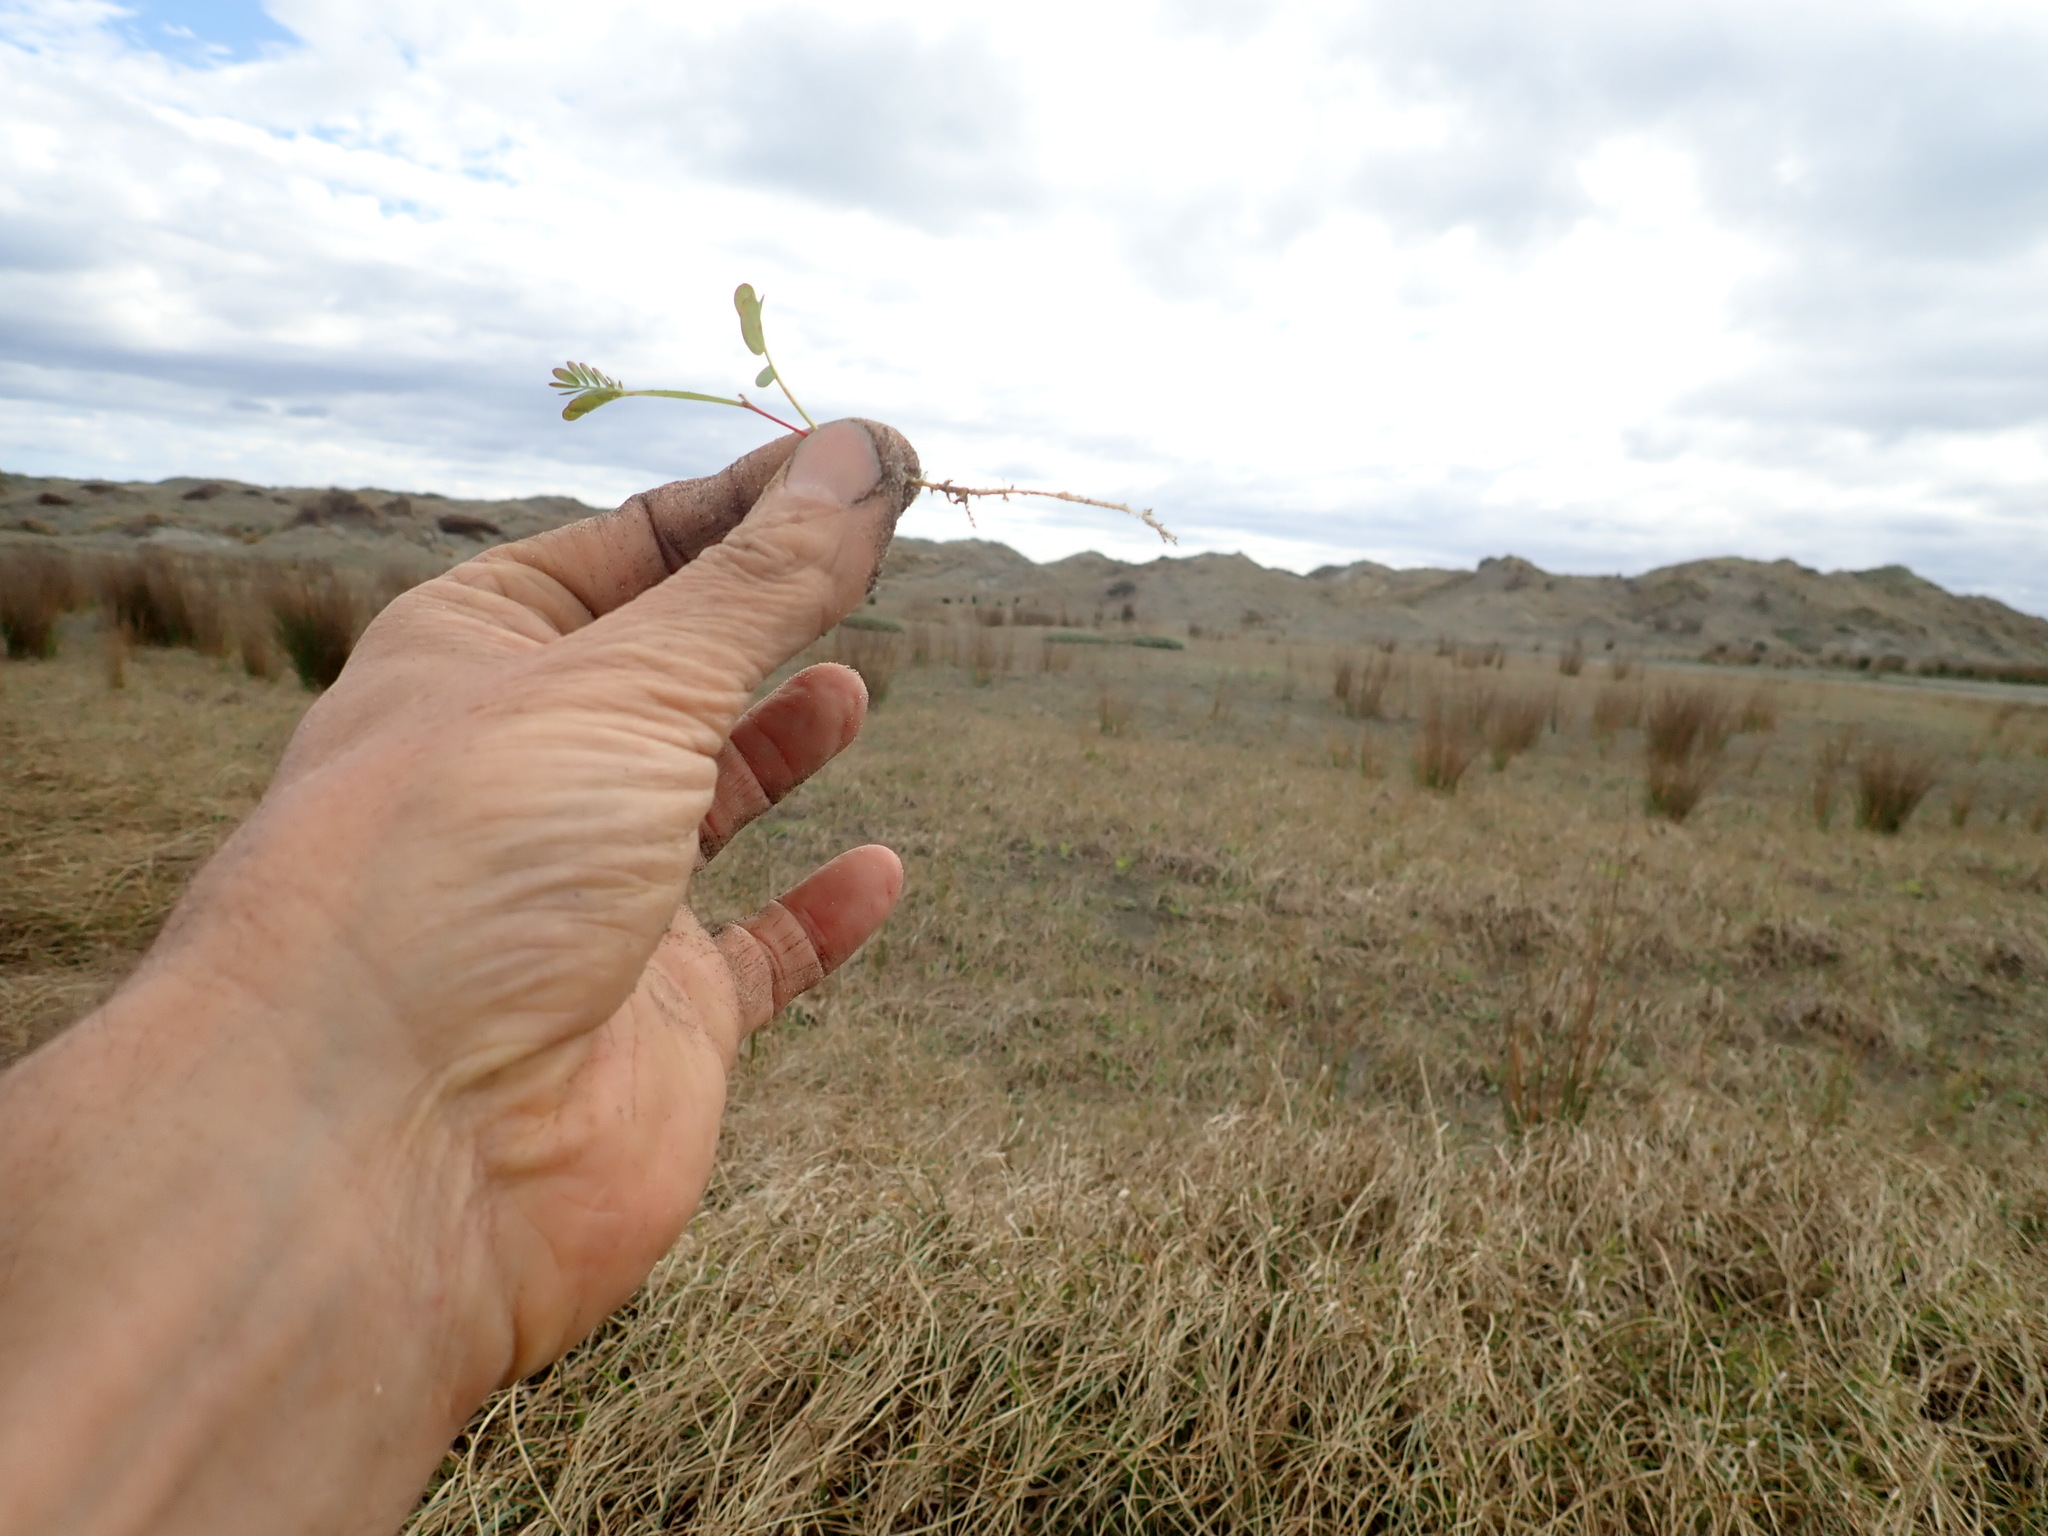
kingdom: Plantae
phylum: Tracheophyta
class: Magnoliopsida
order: Fabales
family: Fabaceae
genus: Acacia
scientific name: Acacia longifolia
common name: Sydney golden wattle
